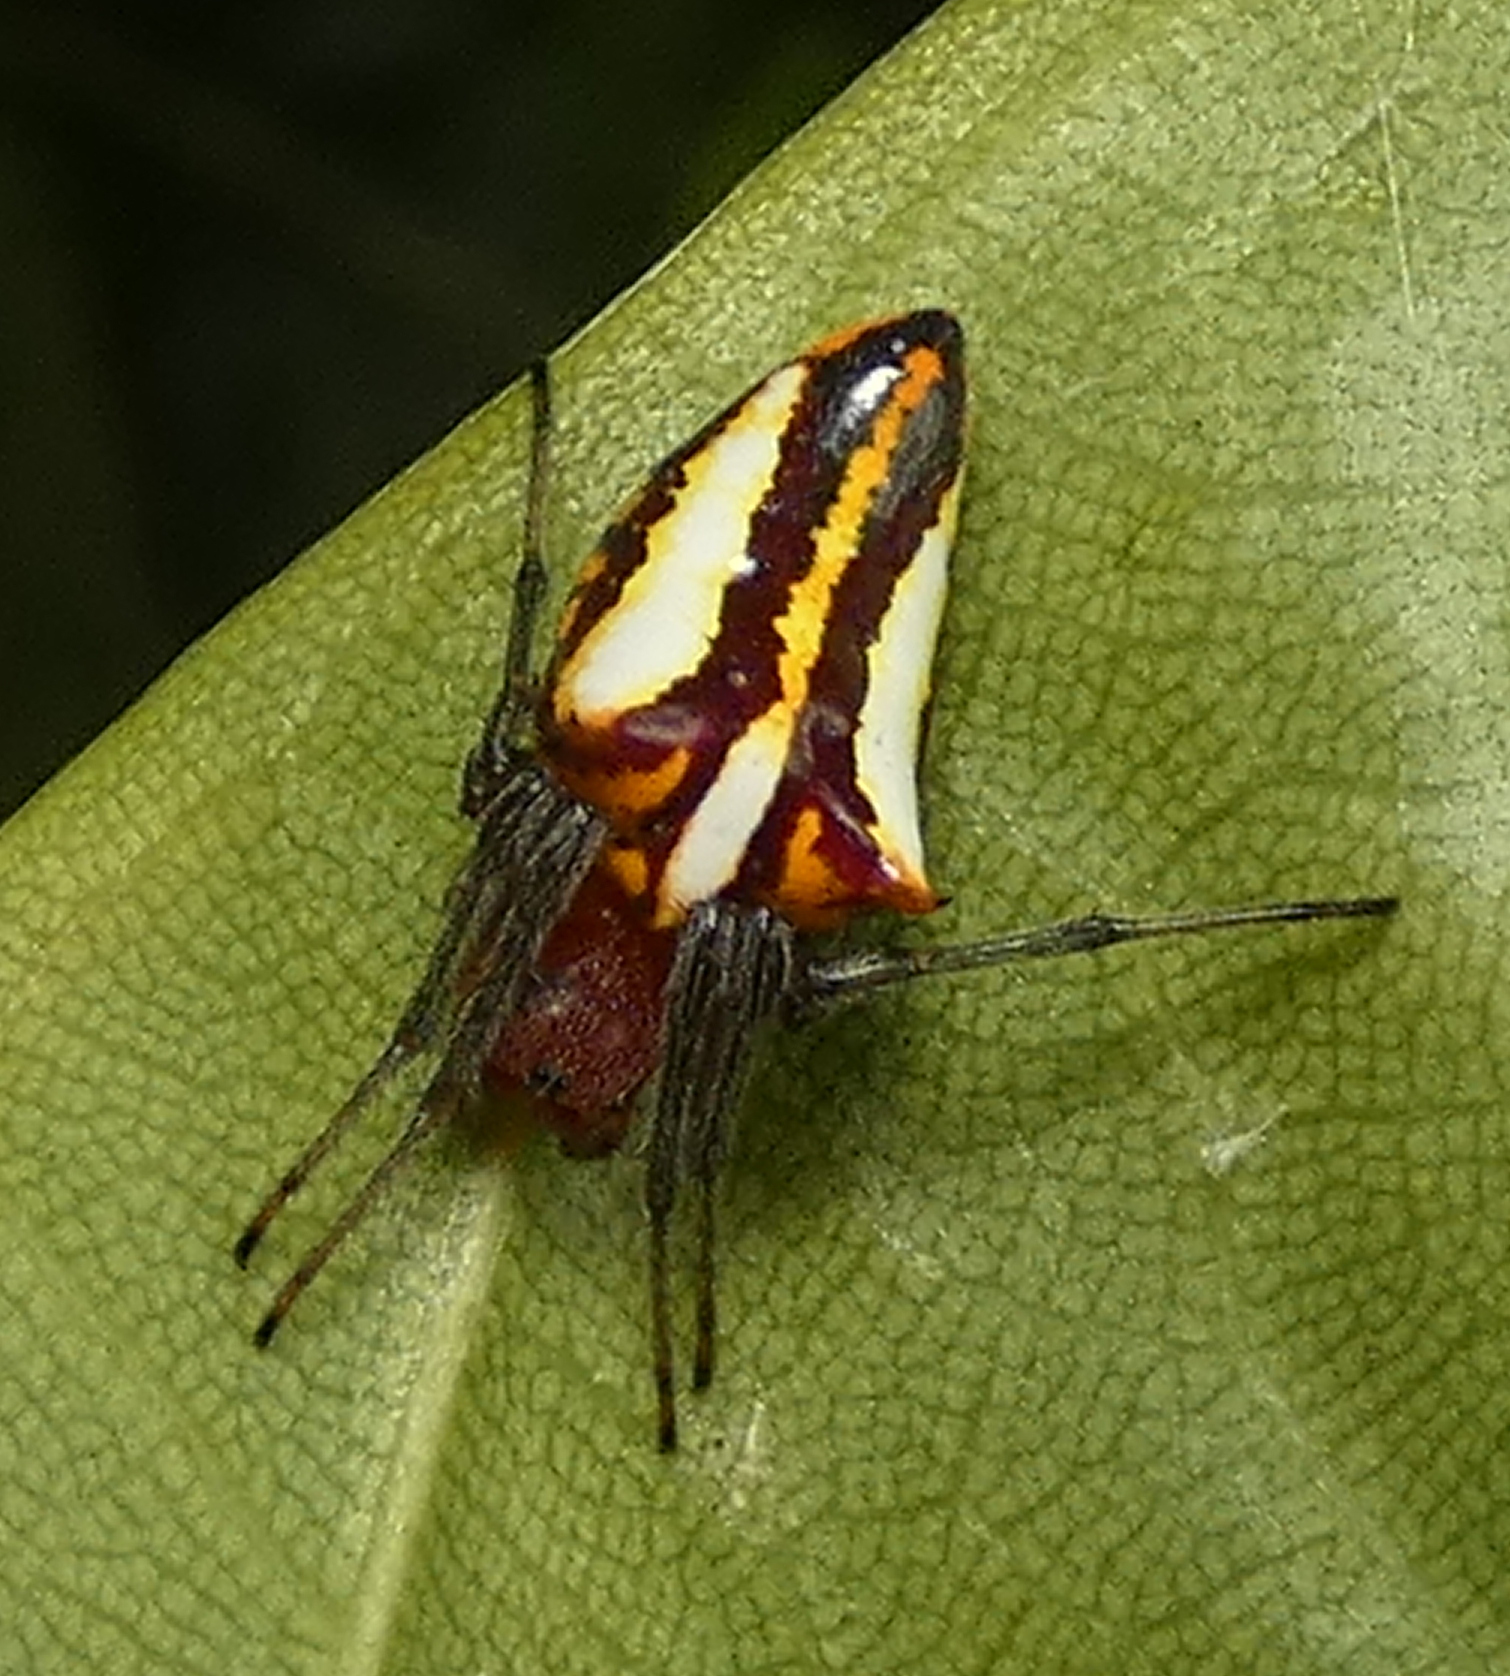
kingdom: Animalia
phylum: Arthropoda
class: Arachnida
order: Araneae
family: Araneidae
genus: Alpaida
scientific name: Alpaida bicornuta
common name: Orb weavers
